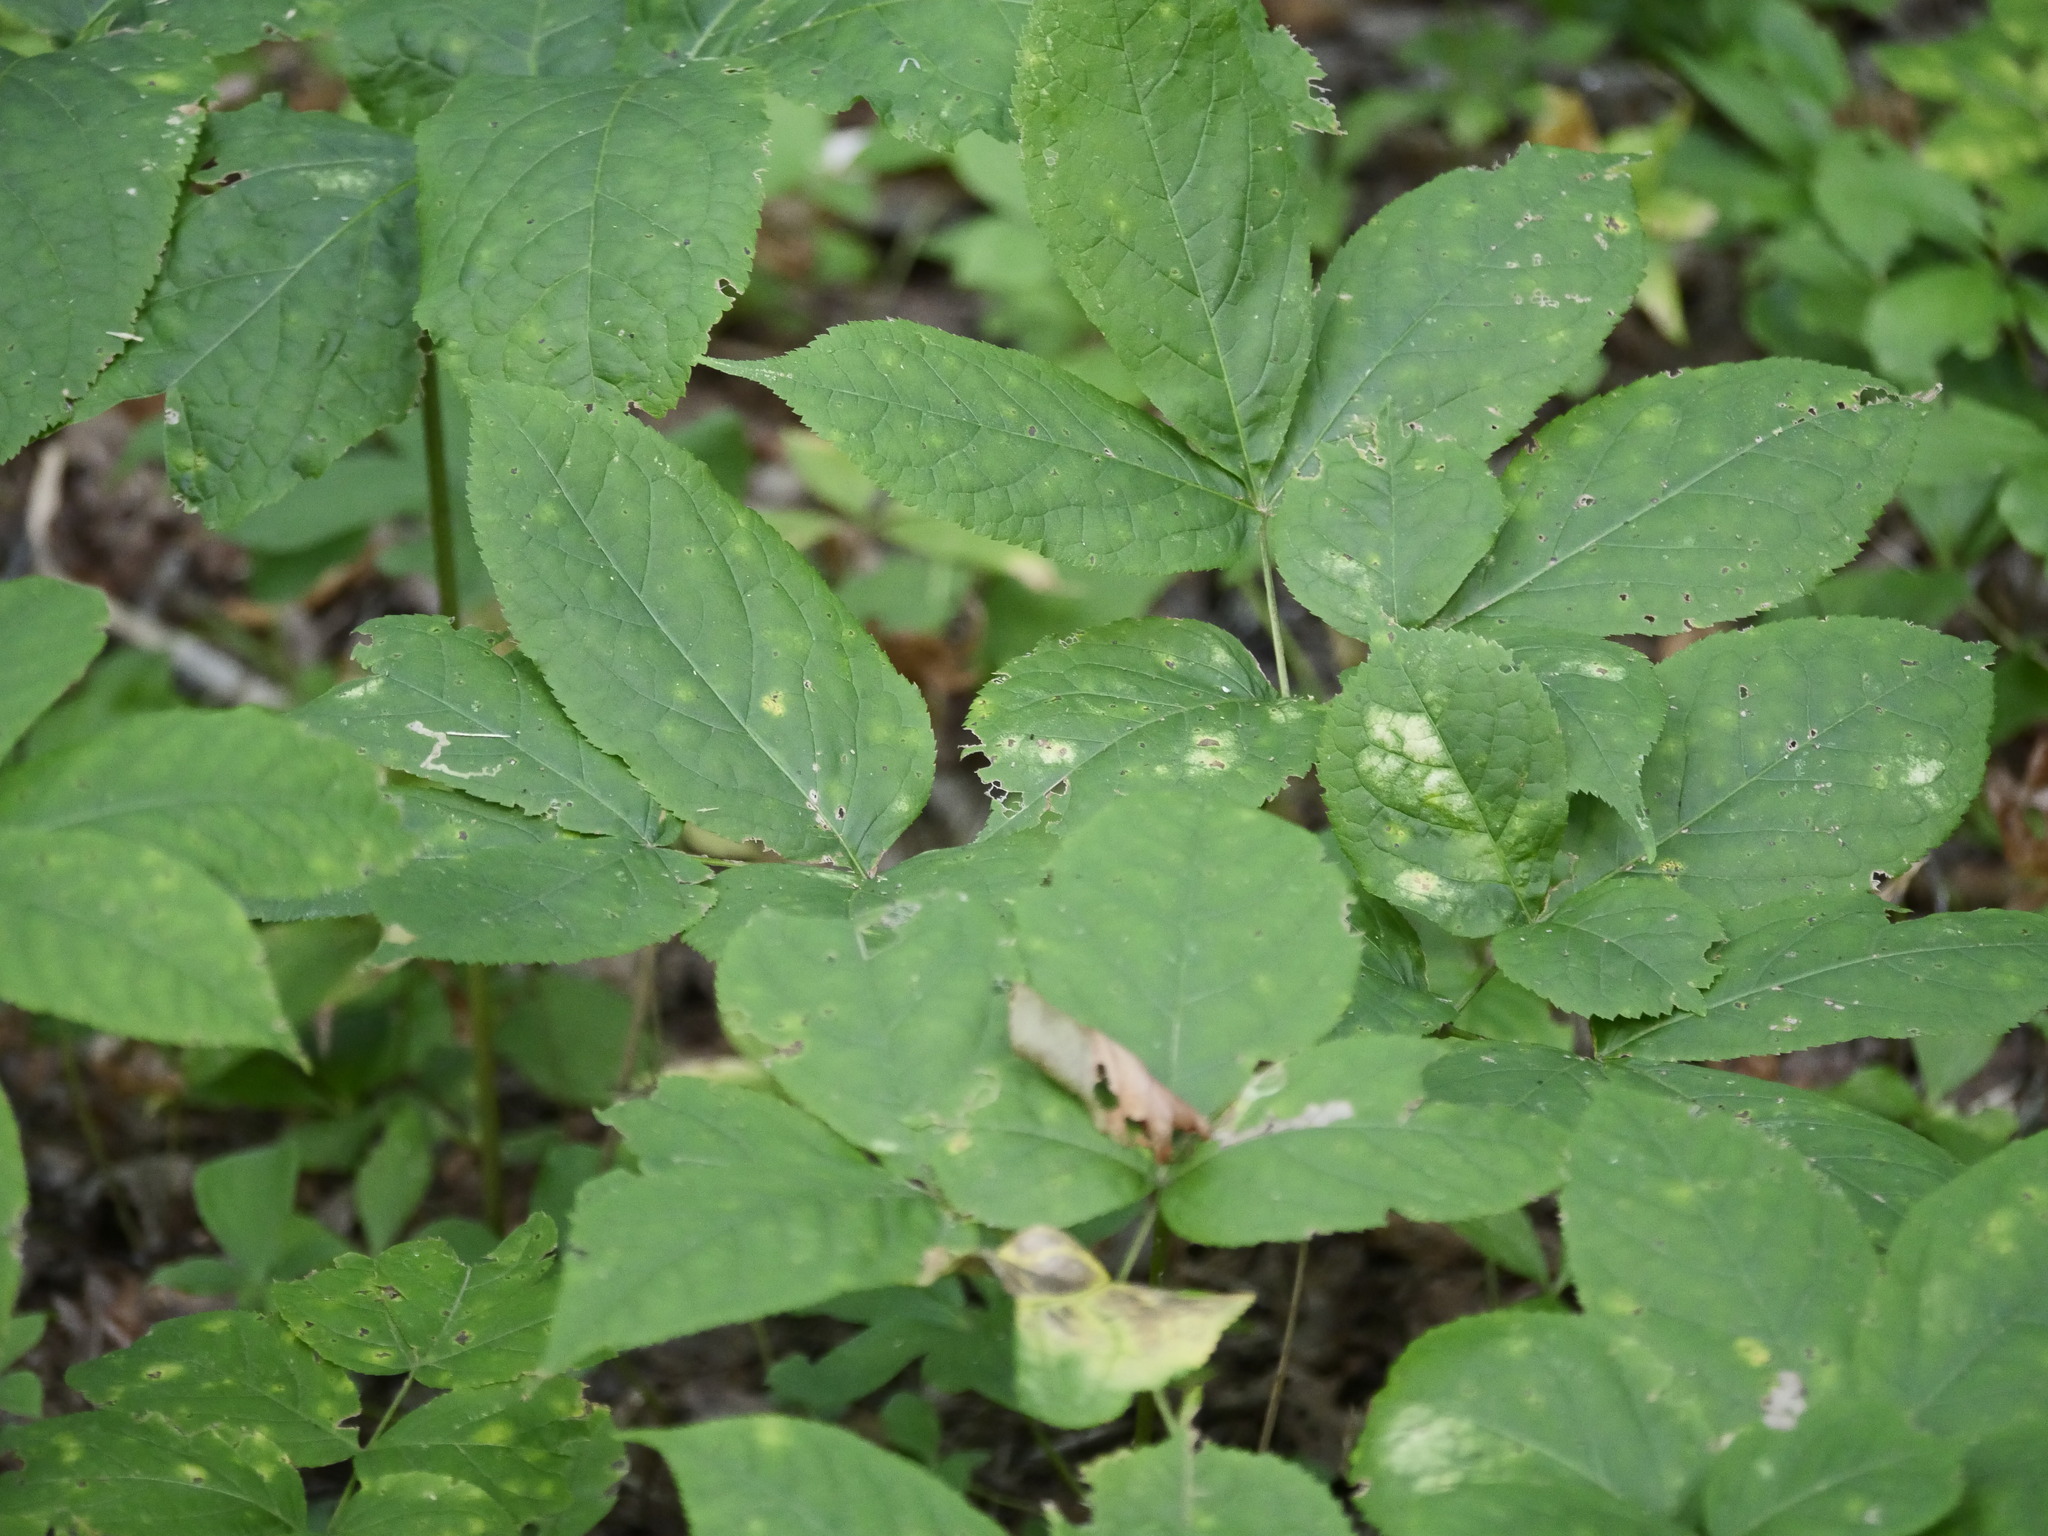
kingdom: Plantae
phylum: Tracheophyta
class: Magnoliopsida
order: Apiales
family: Araliaceae
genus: Aralia
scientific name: Aralia nudicaulis
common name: Wild sarsaparilla
